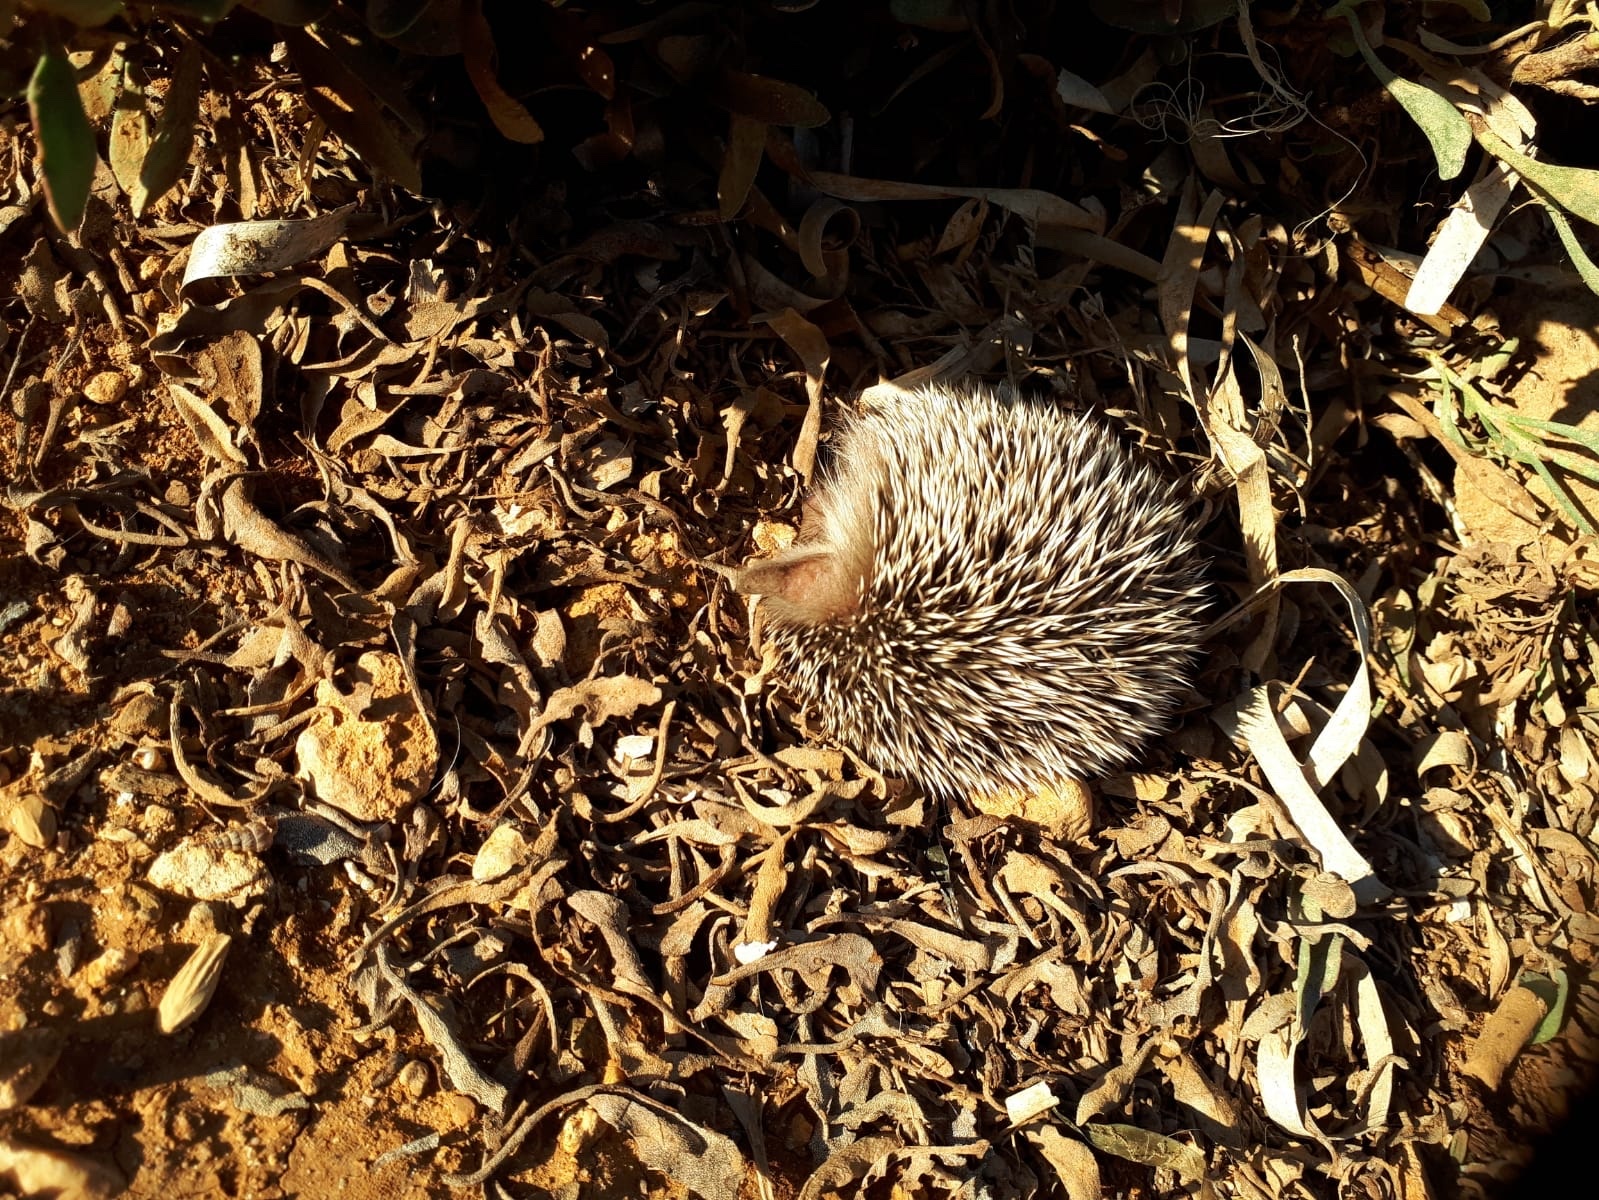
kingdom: Animalia
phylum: Chordata
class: Mammalia
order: Erinaceomorpha
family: Erinaceidae
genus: Atelerix
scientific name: Atelerix algirus
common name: North african hedgehog
